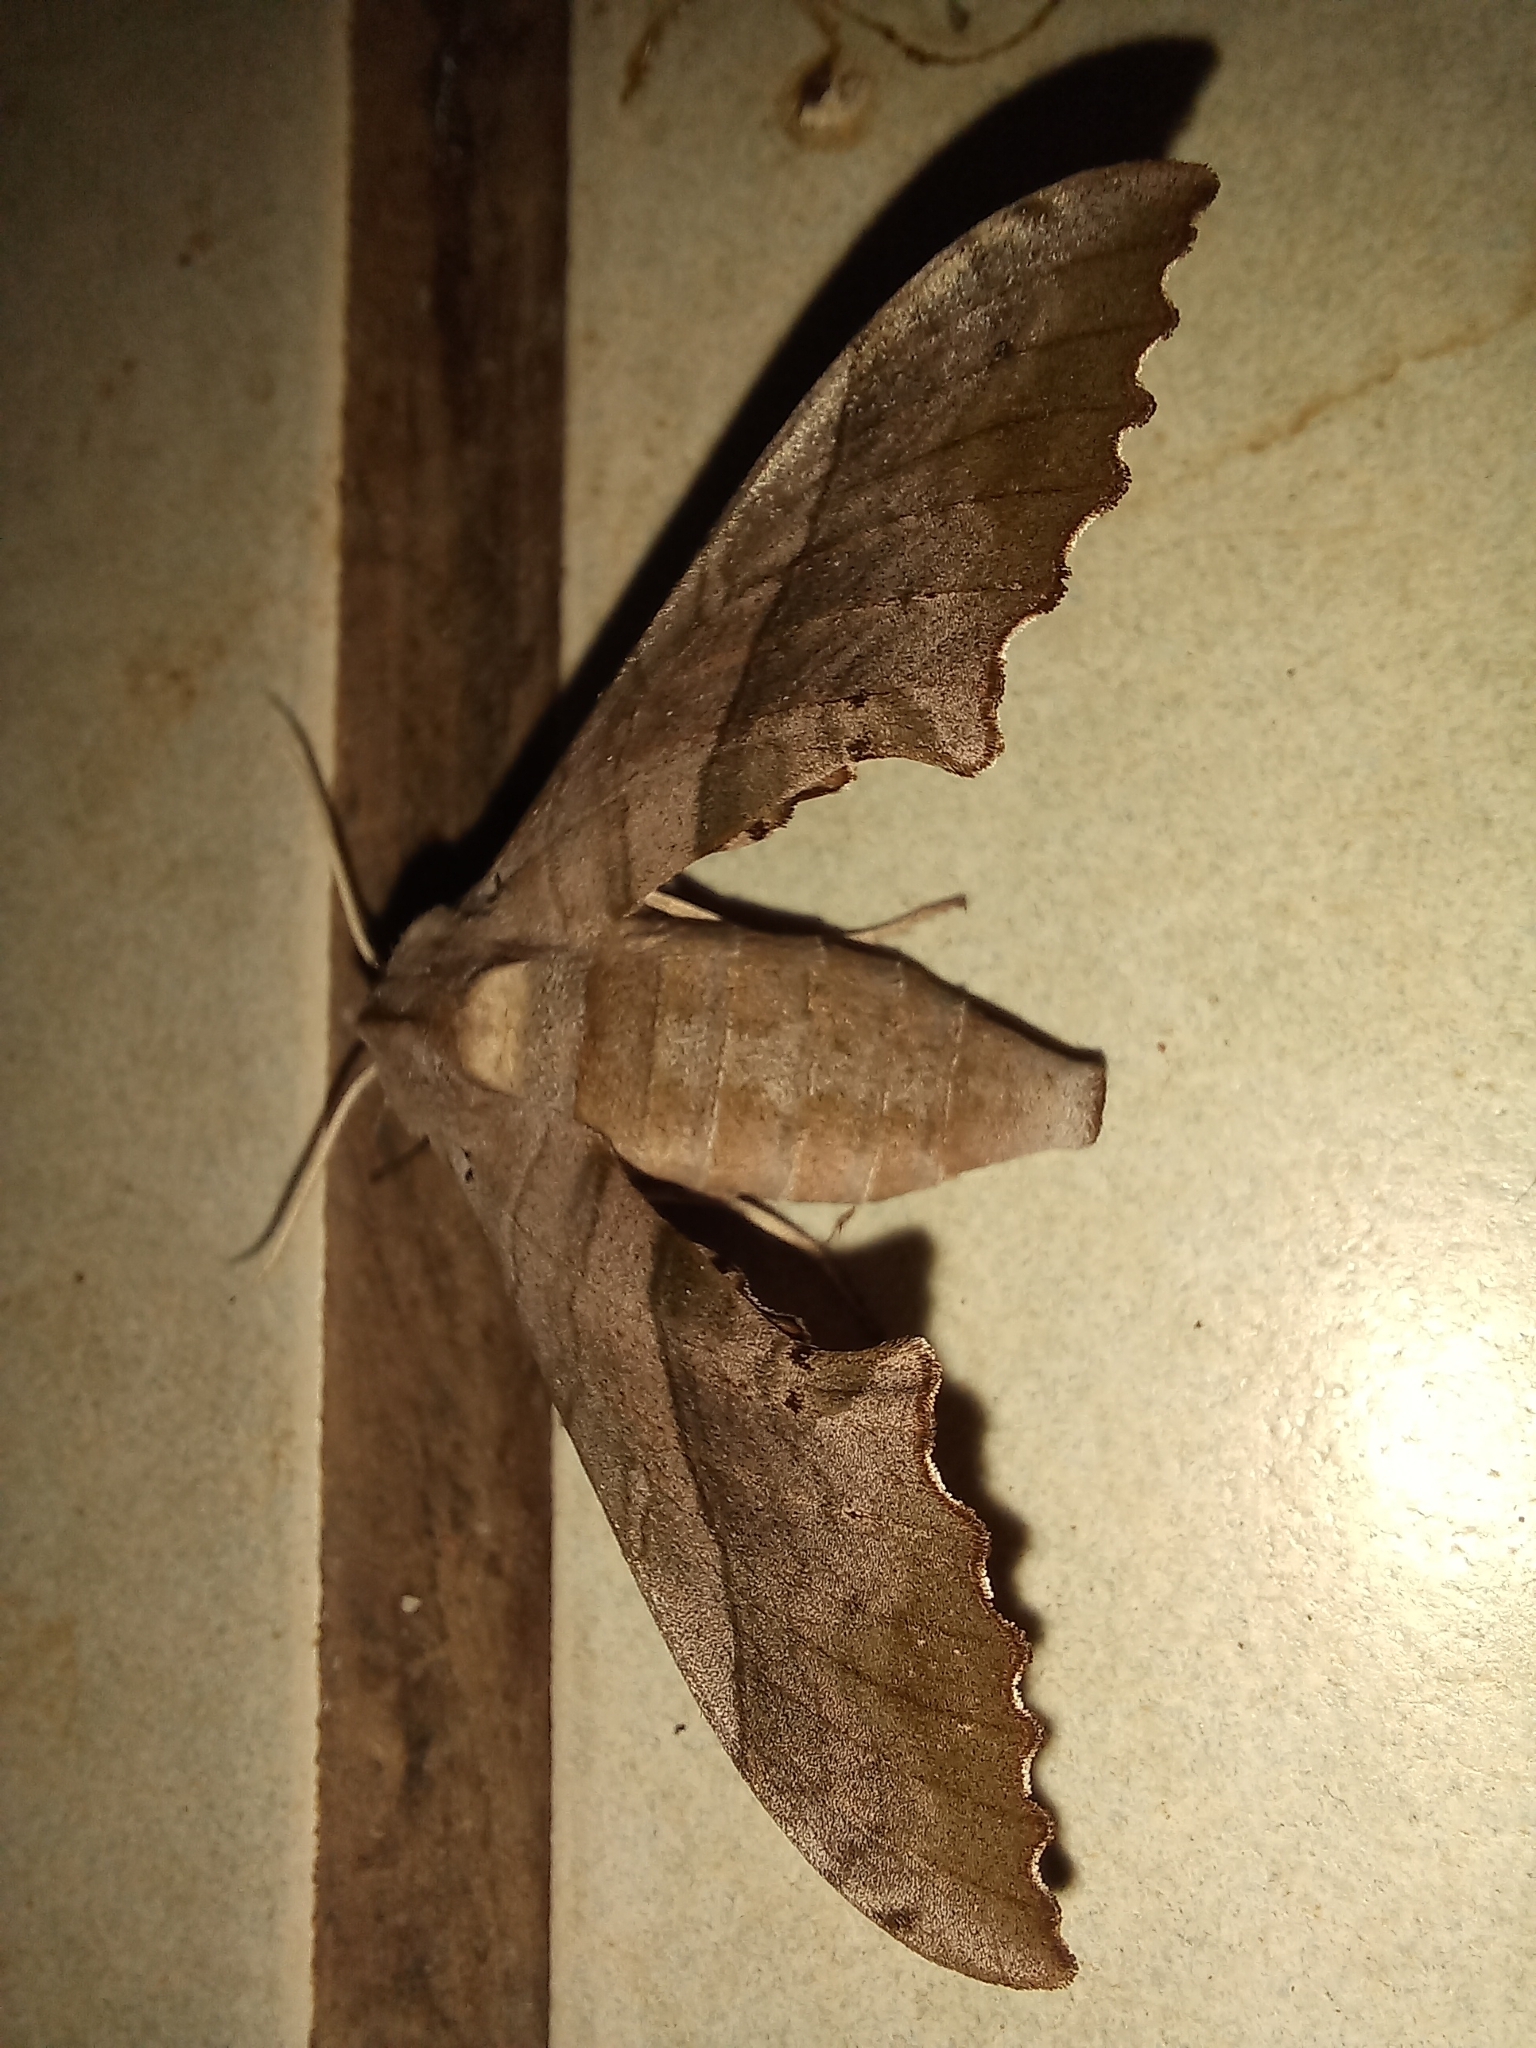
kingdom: Animalia
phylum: Arthropoda
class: Insecta
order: Lepidoptera
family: Sphingidae
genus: Rufoclanis
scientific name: Rufoclanis numosae
